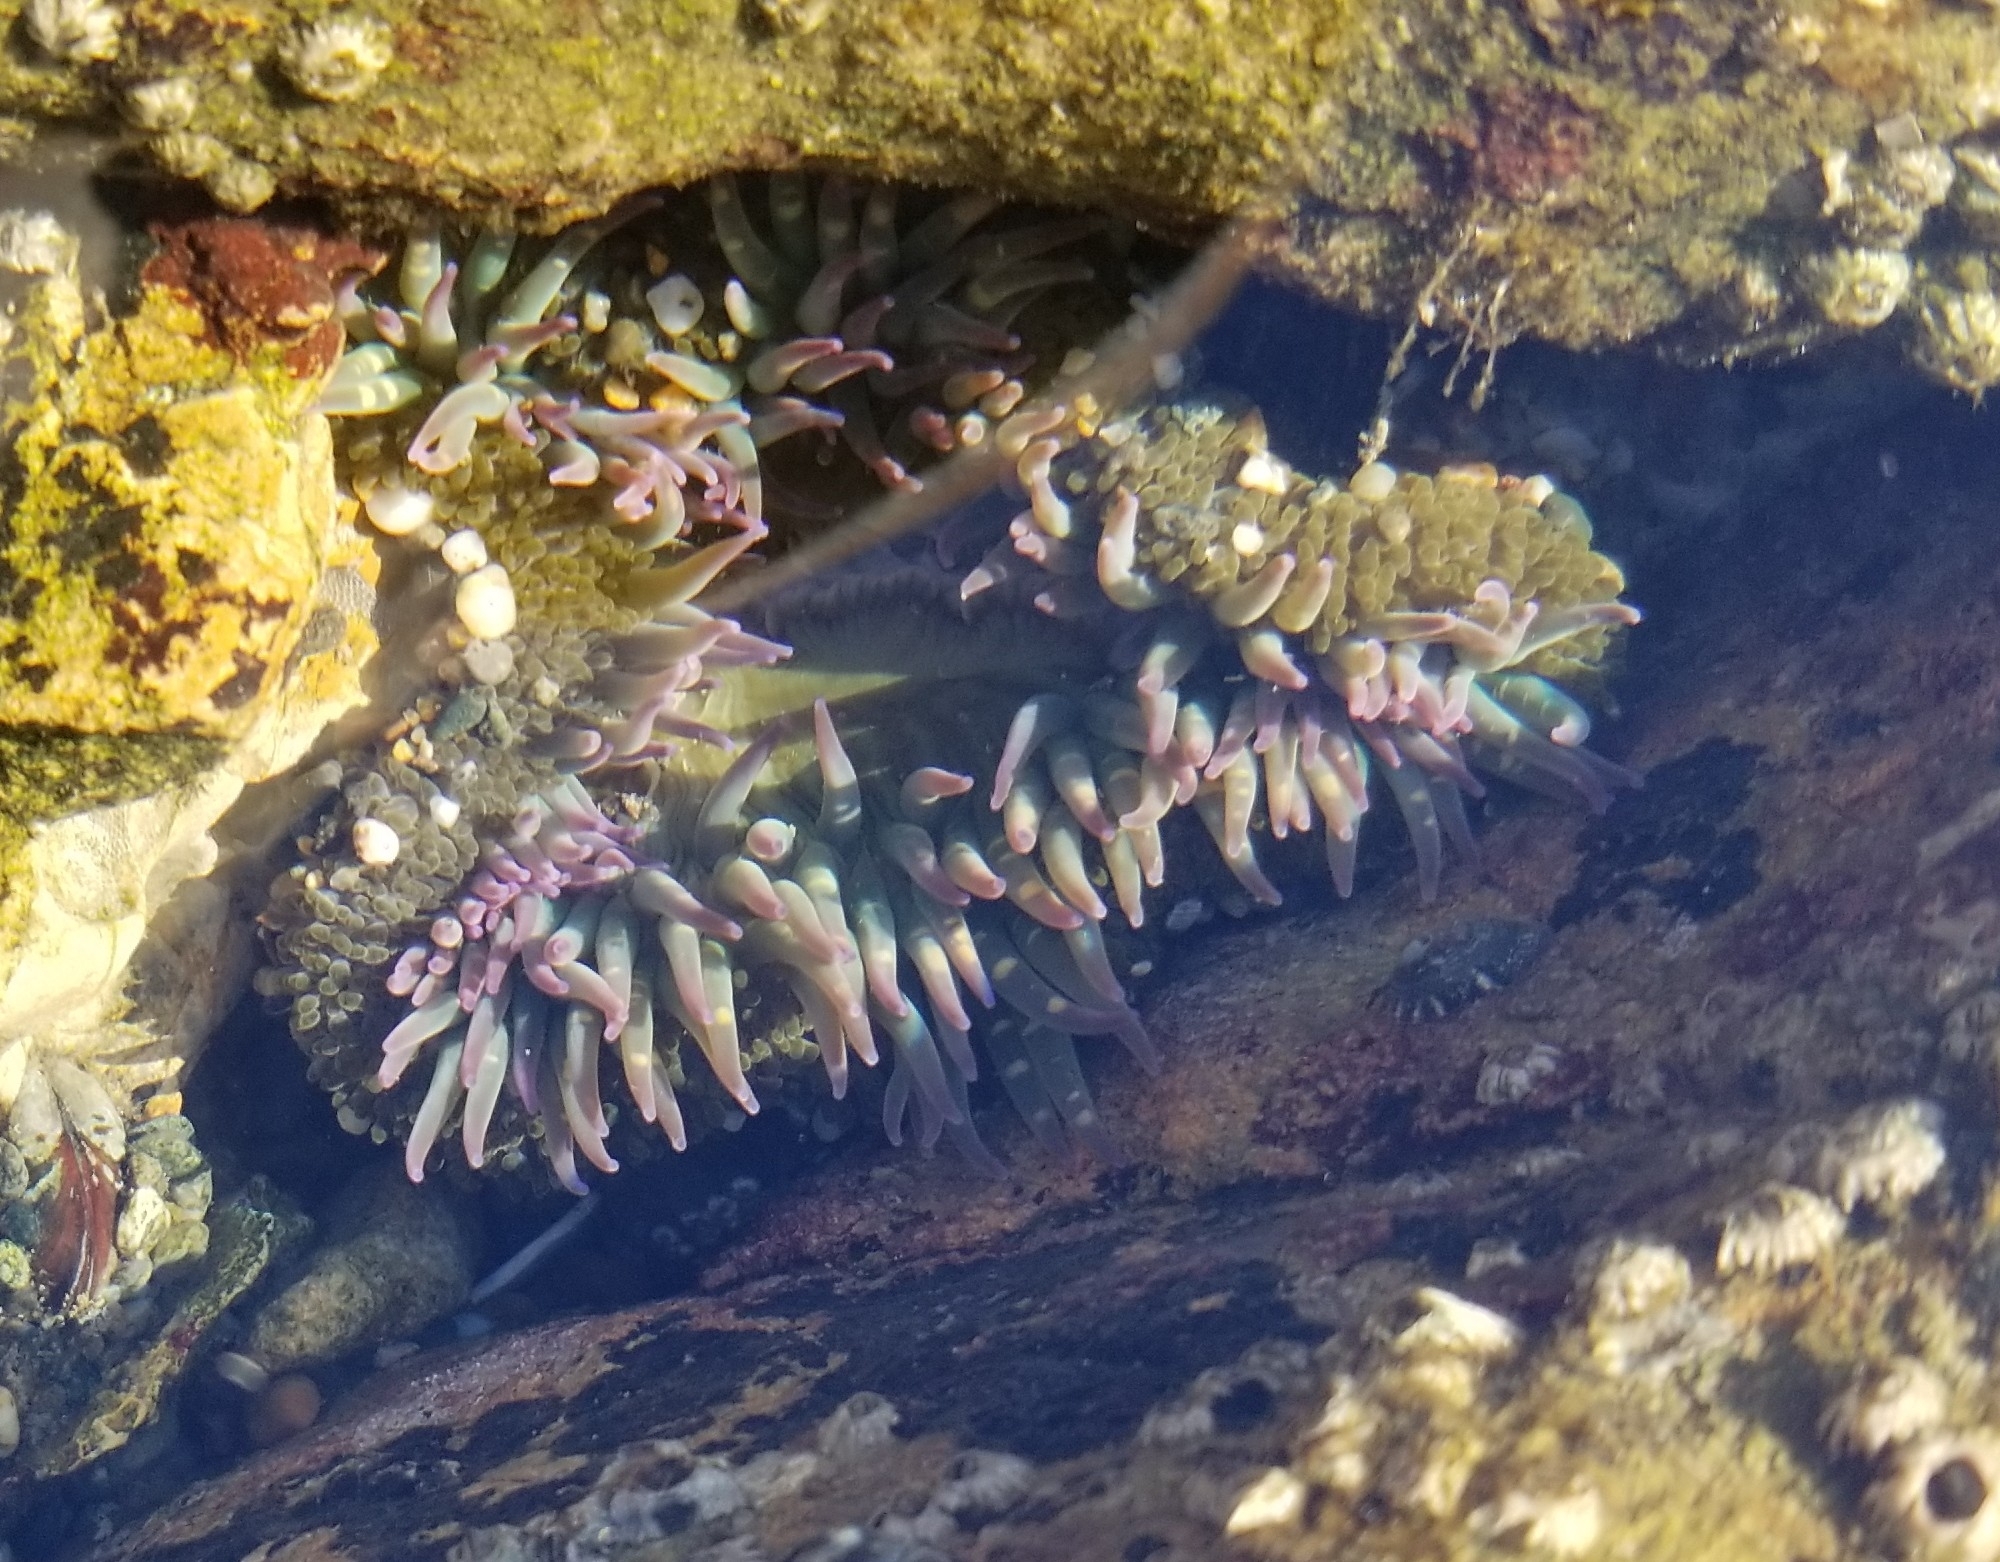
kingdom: Animalia
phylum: Cnidaria
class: Anthozoa
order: Actiniaria
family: Actiniidae
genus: Anthopleura
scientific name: Anthopleura sola
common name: Sun anemone
